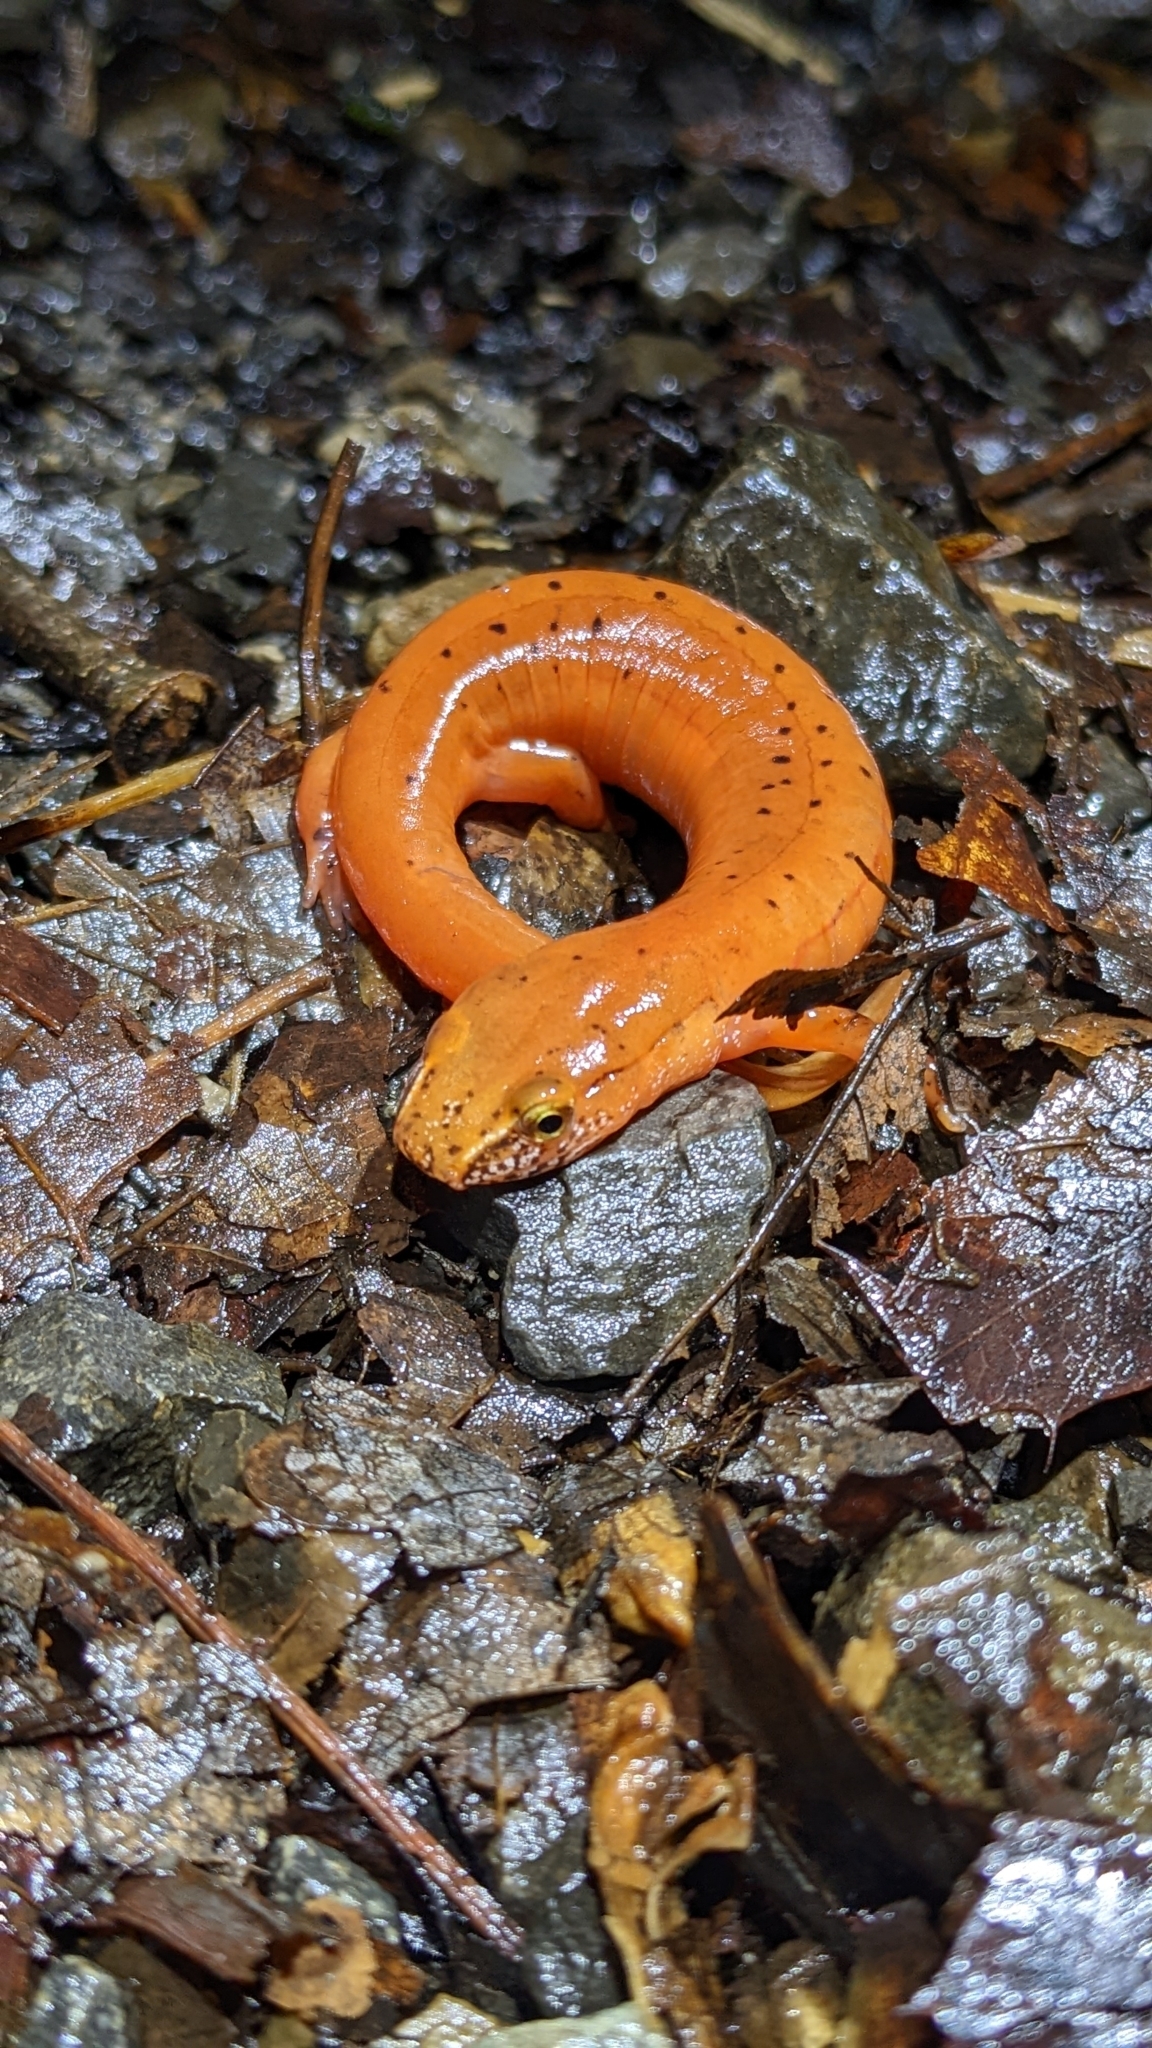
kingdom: Animalia
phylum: Chordata
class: Amphibia
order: Caudata
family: Plethodontidae
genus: Gyrinophilus
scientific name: Gyrinophilus porphyriticus
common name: Spring salamander
